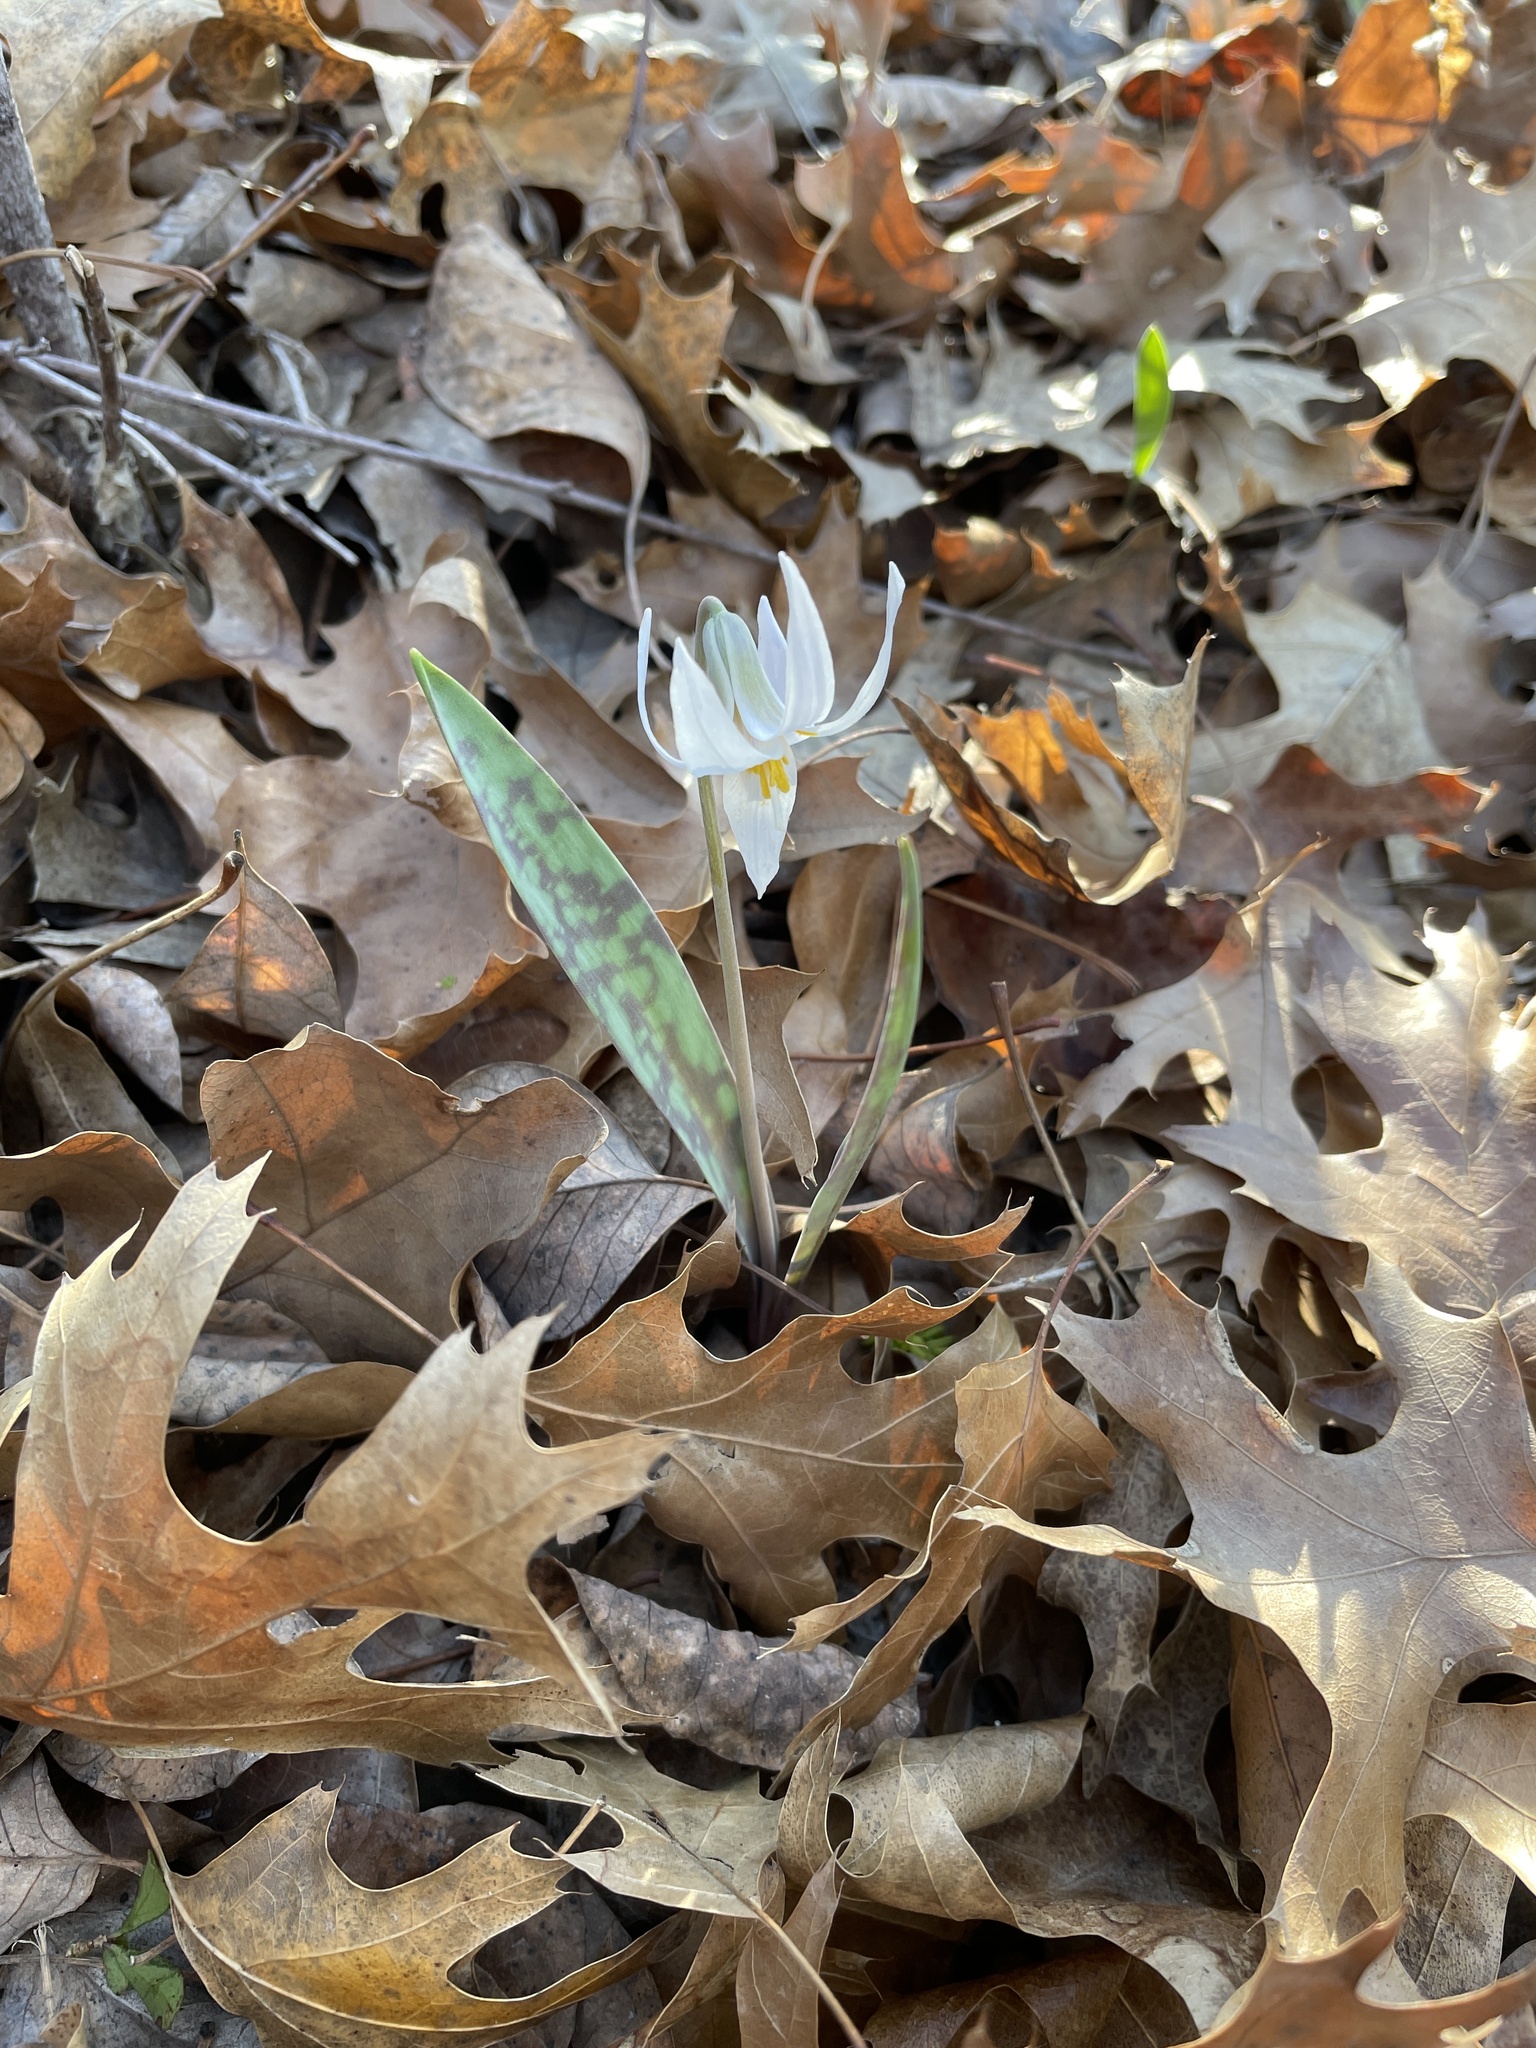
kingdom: Plantae
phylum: Tracheophyta
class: Liliopsida
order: Liliales
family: Liliaceae
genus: Erythronium
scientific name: Erythronium albidum
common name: White trout-lily
